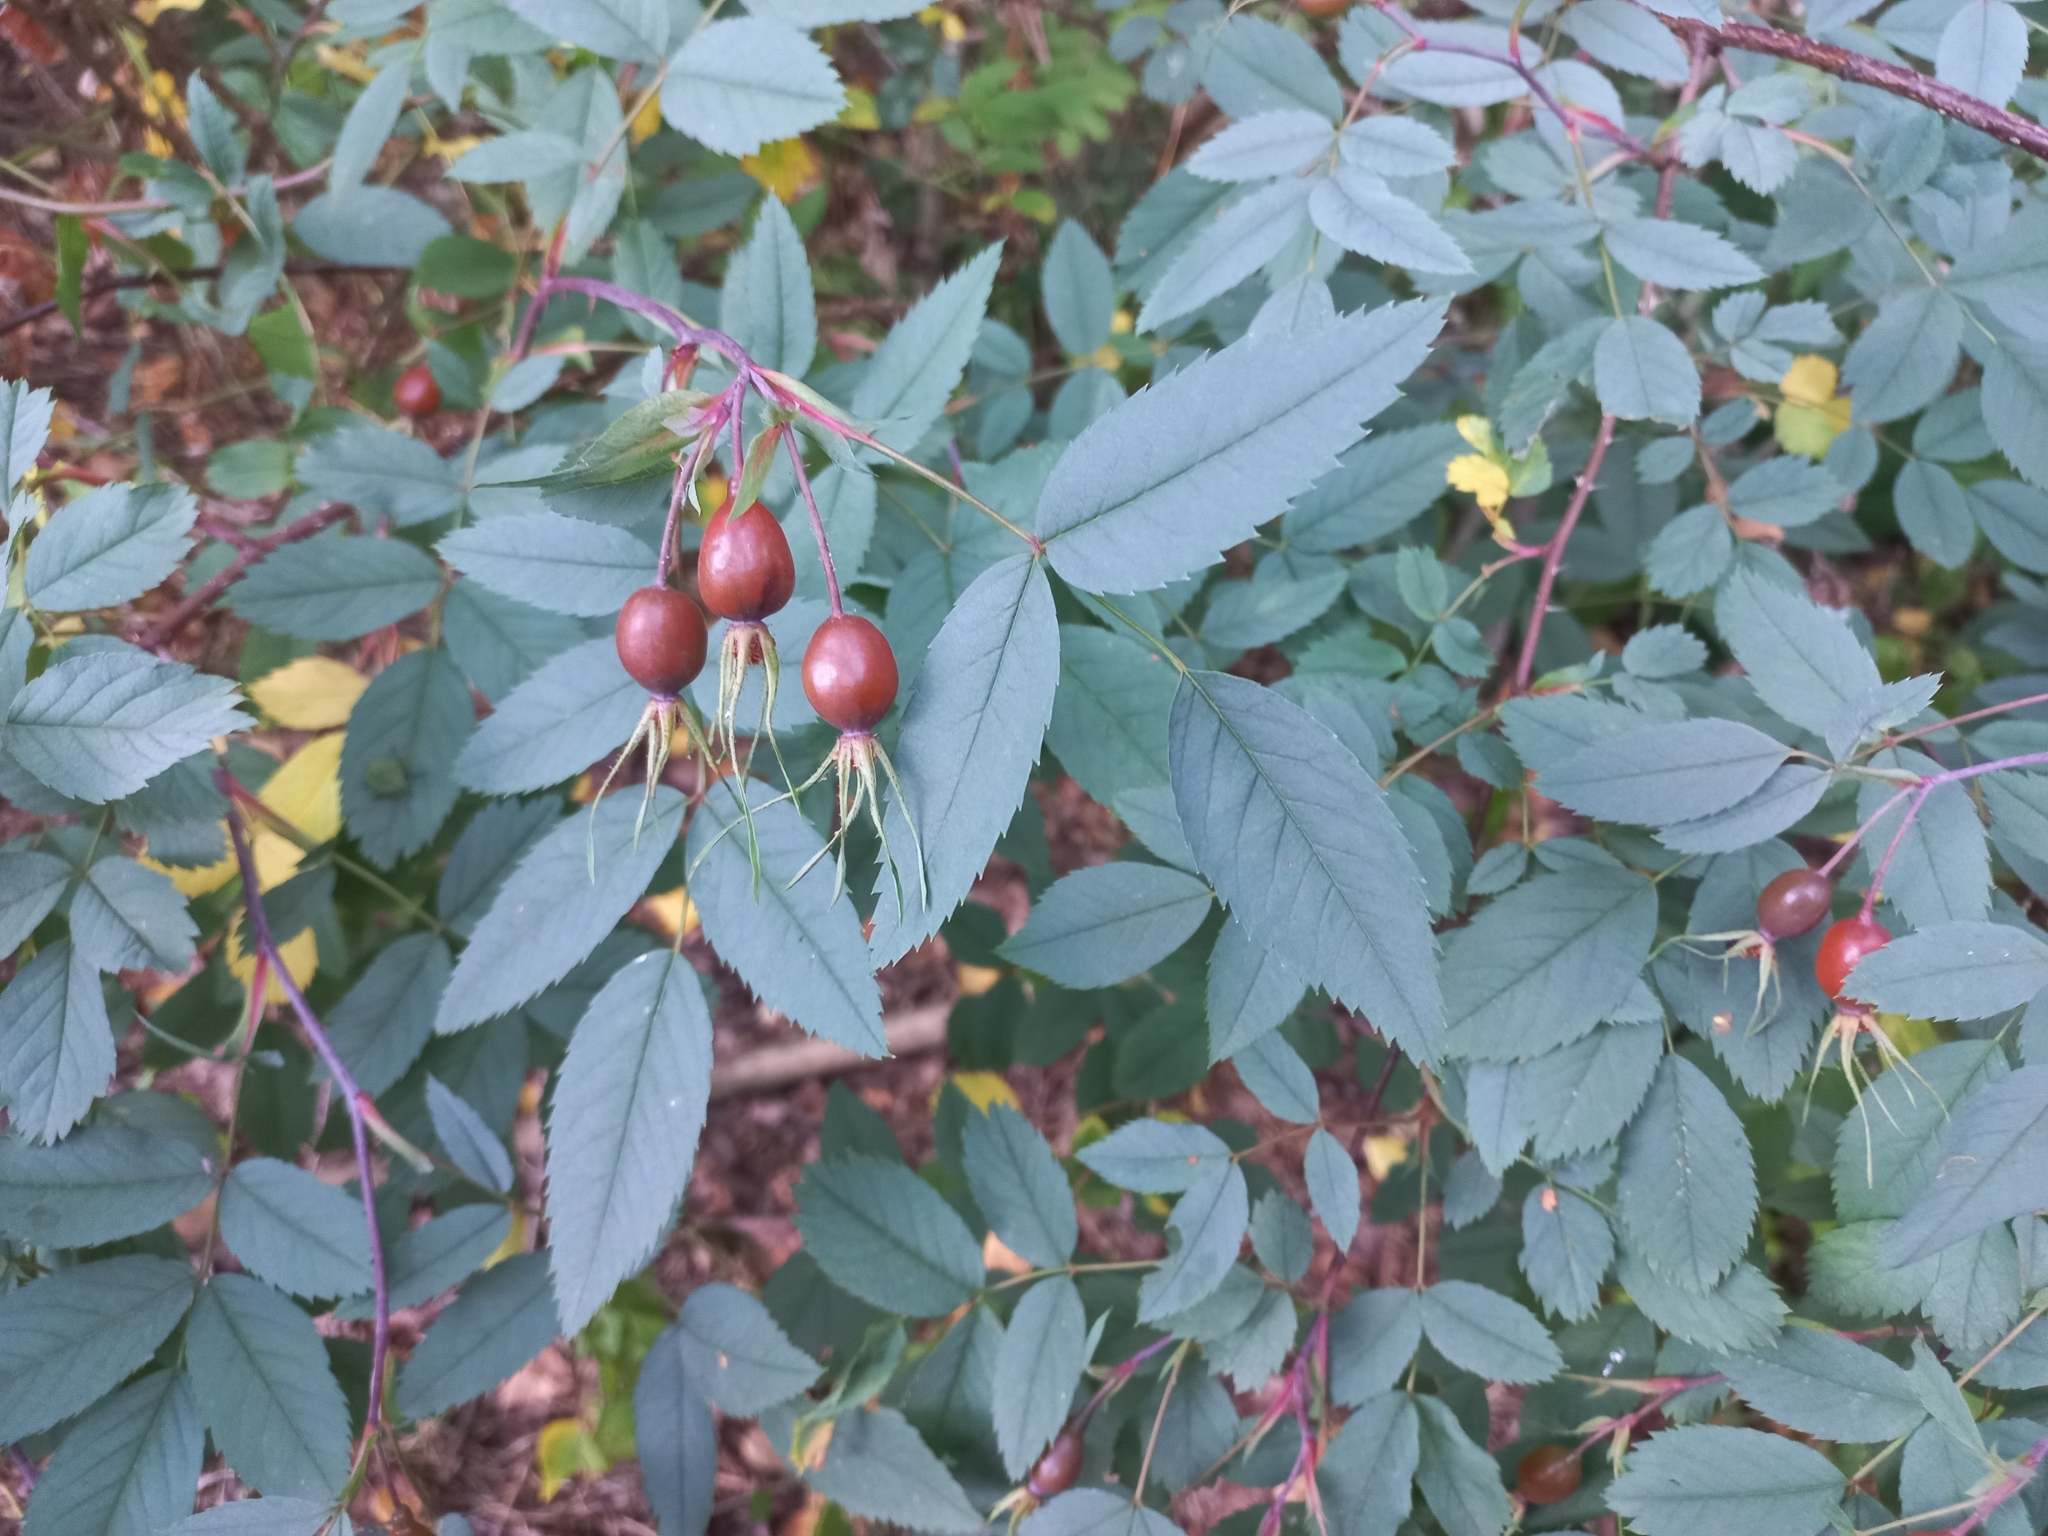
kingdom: Plantae
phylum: Tracheophyta
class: Magnoliopsida
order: Rosales
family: Rosaceae
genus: Rosa
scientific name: Rosa glauca
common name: Redleaf rose
